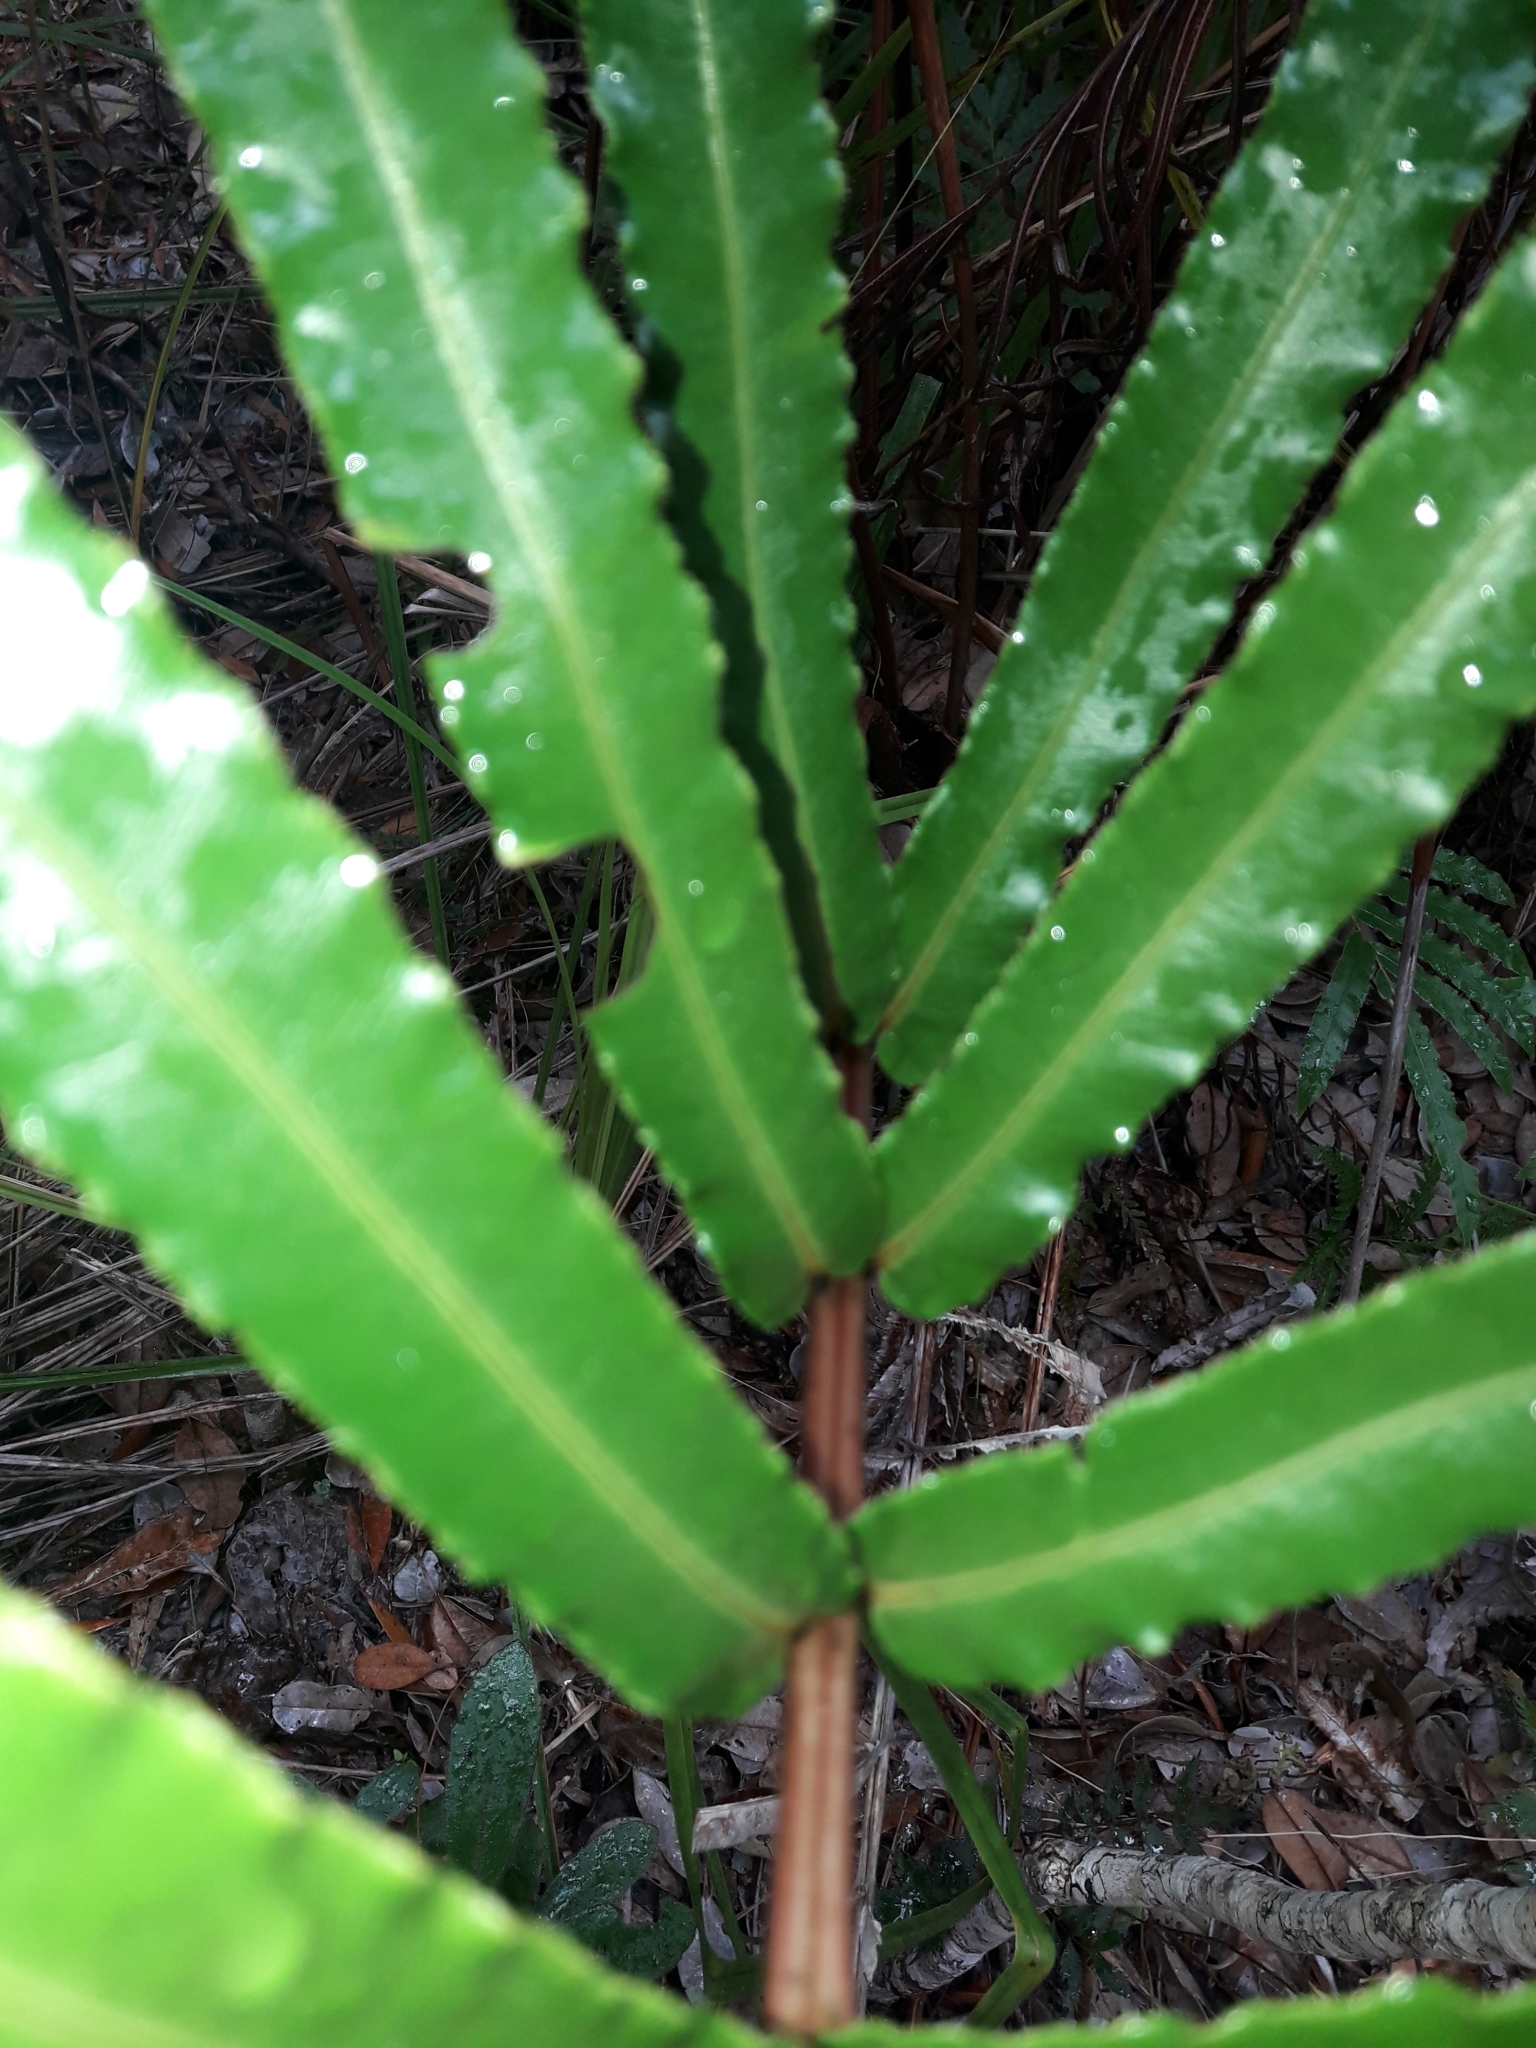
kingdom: Plantae
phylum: Tracheophyta
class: Polypodiopsida
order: Polypodiales
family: Blechnaceae
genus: Parablechnum
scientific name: Parablechnum subcordatum
